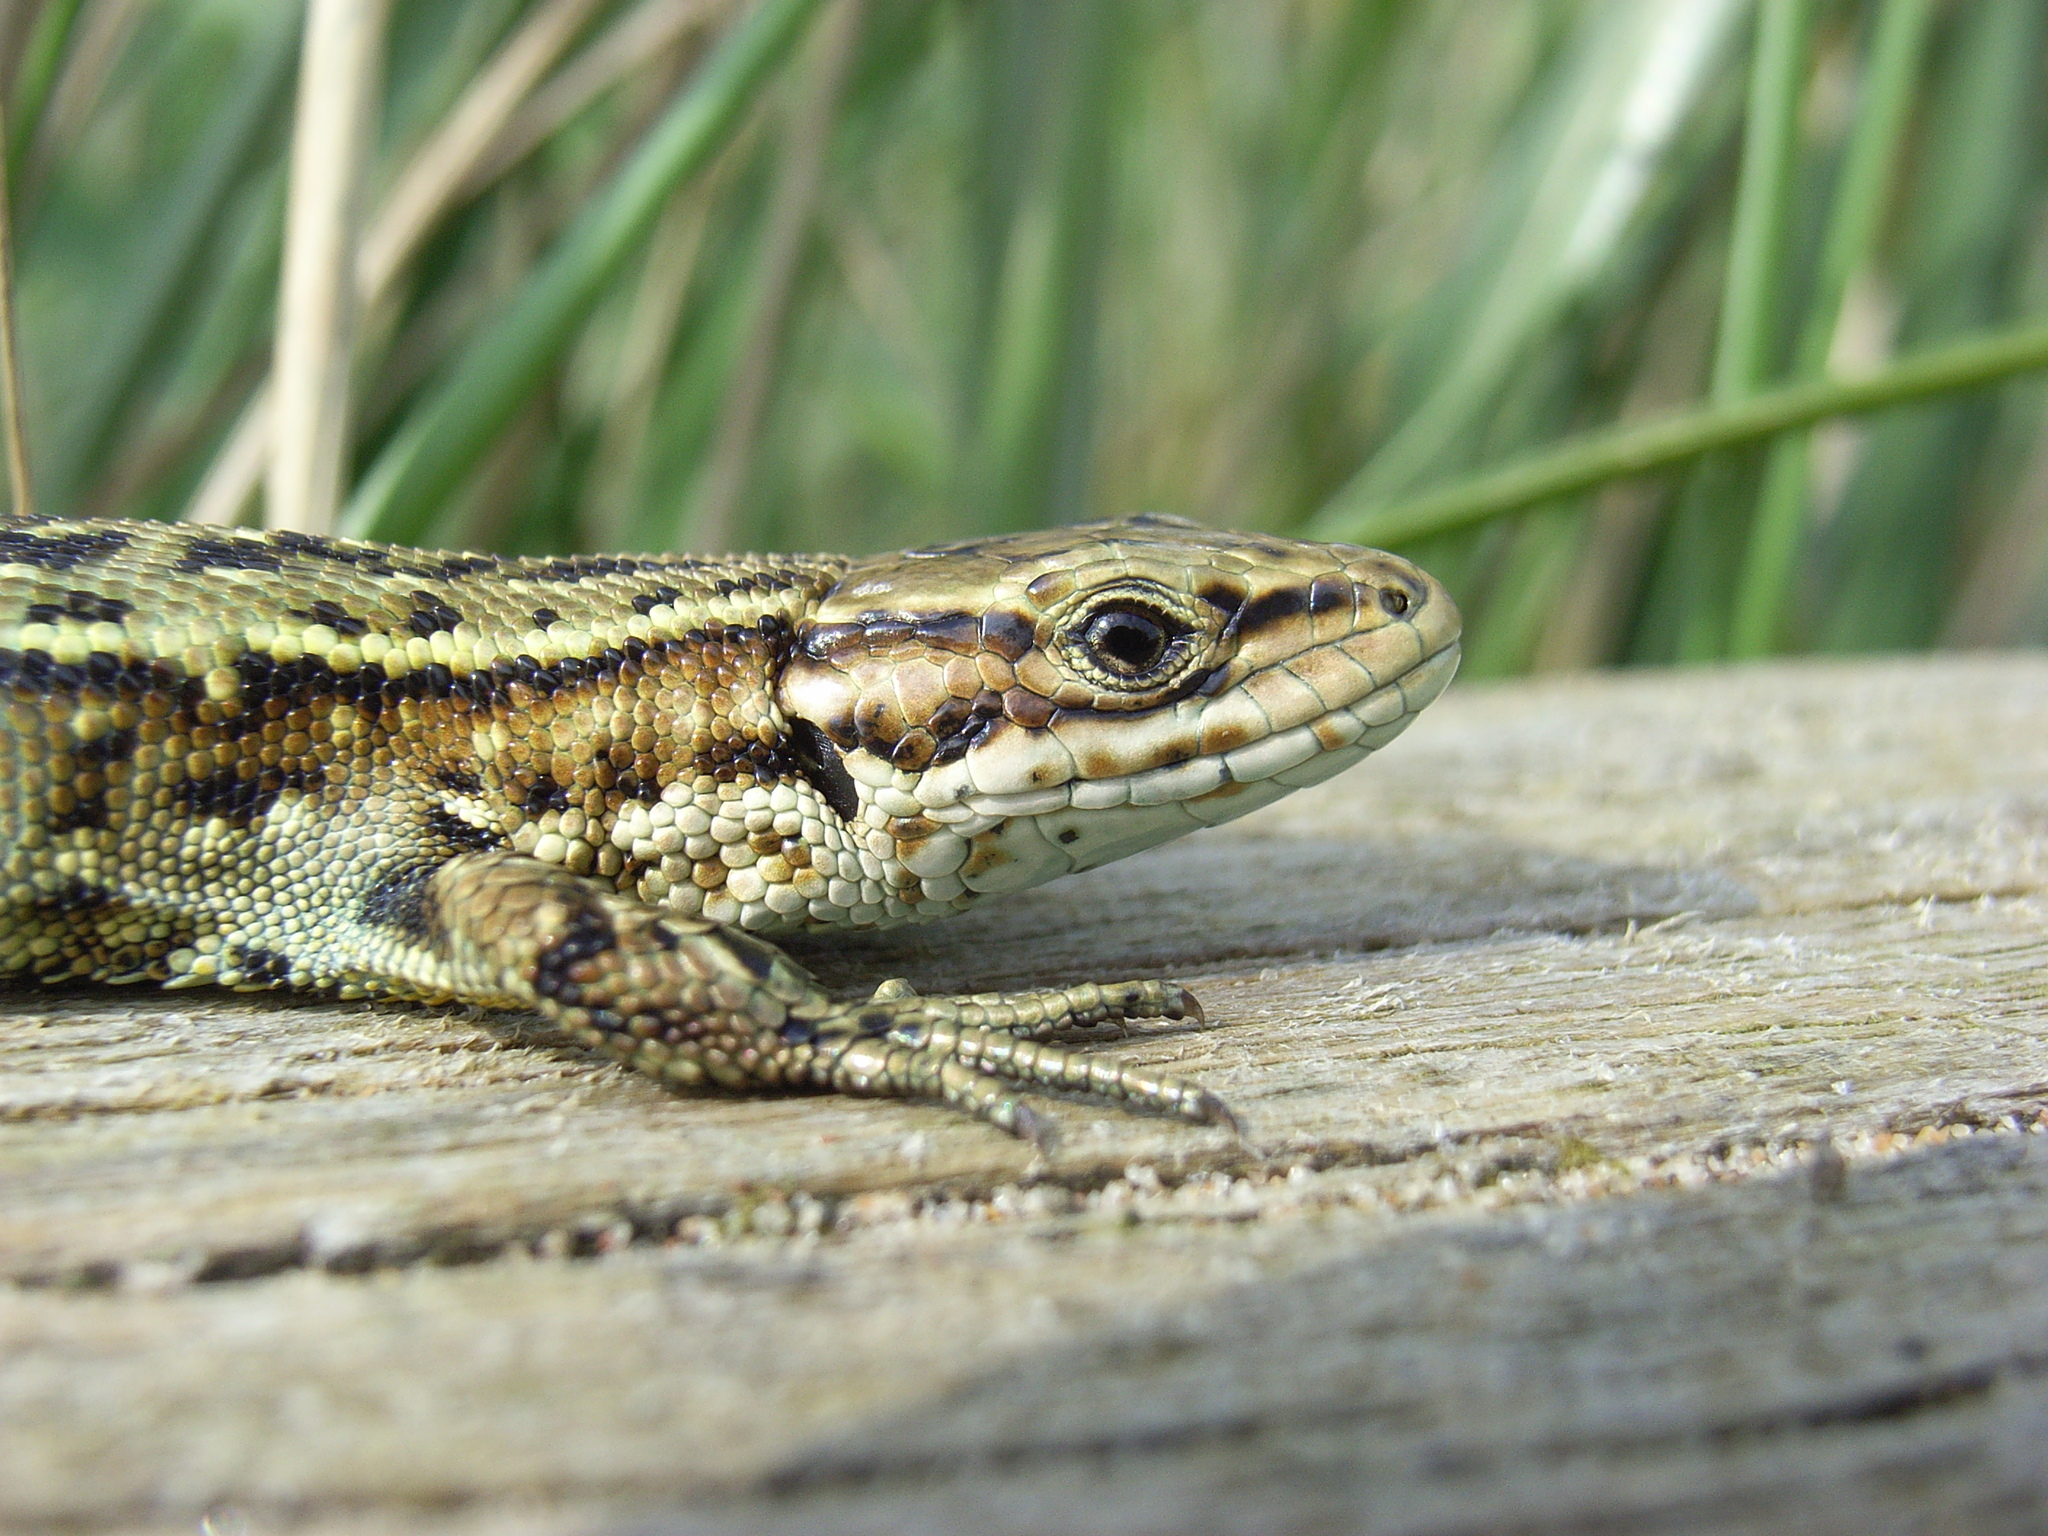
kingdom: Animalia
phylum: Chordata
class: Squamata
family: Lacertidae
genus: Zootoca
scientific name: Zootoca vivipara
